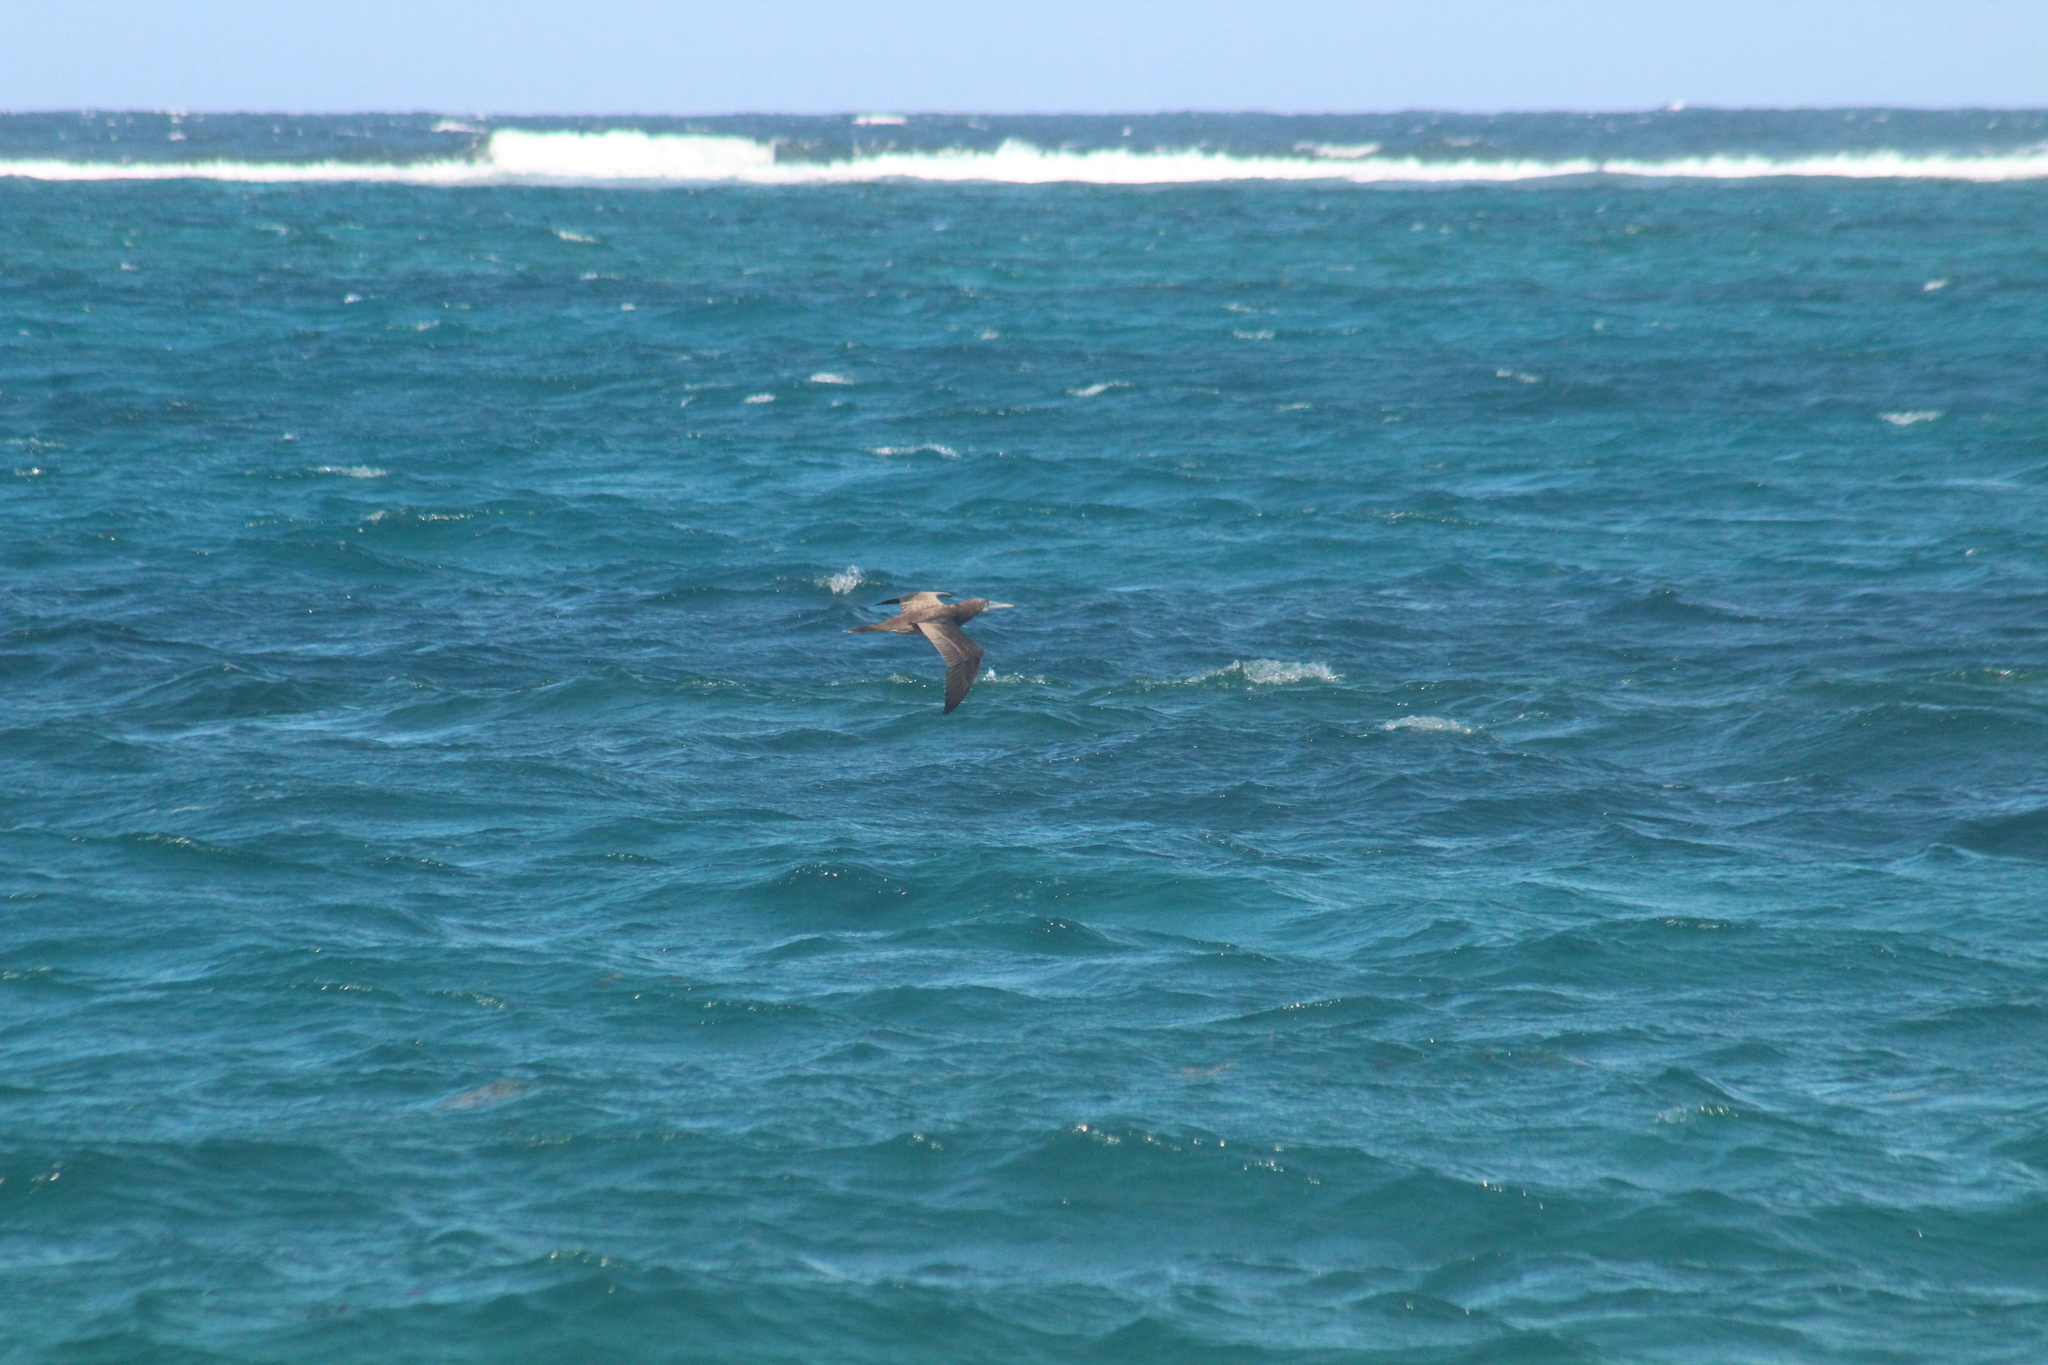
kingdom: Animalia
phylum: Chordata
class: Aves
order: Suliformes
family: Sulidae
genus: Sula
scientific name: Sula leucogaster
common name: Brown booby
